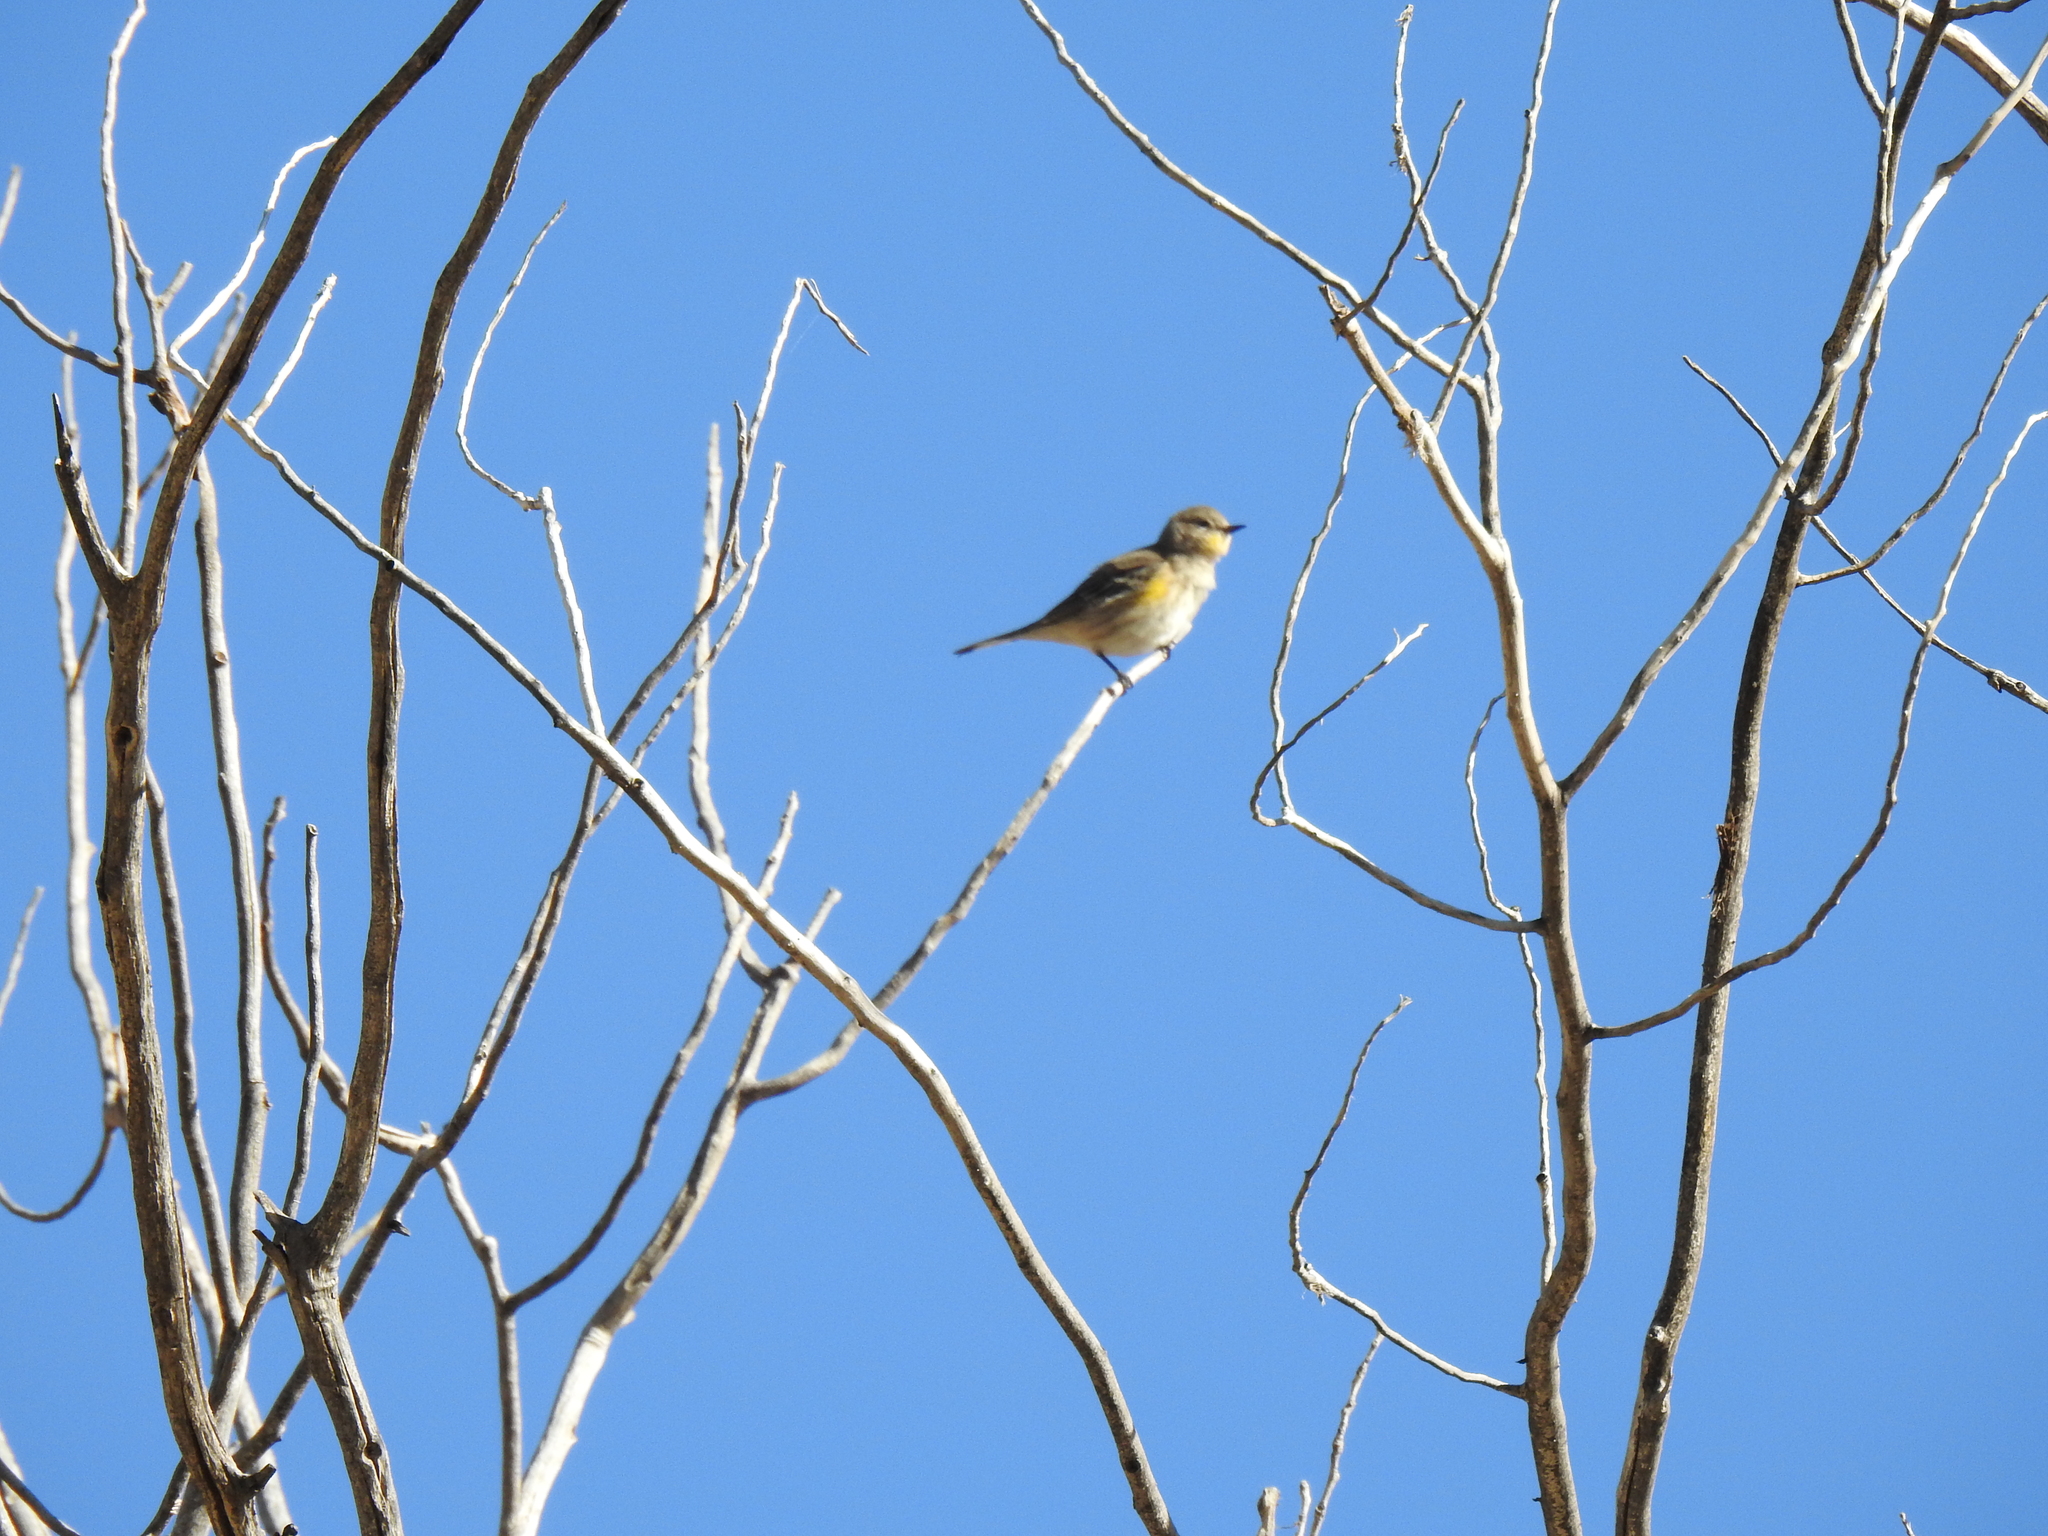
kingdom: Animalia
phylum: Chordata
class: Aves
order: Passeriformes
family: Parulidae
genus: Setophaga
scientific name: Setophaga coronata
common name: Myrtle warbler
